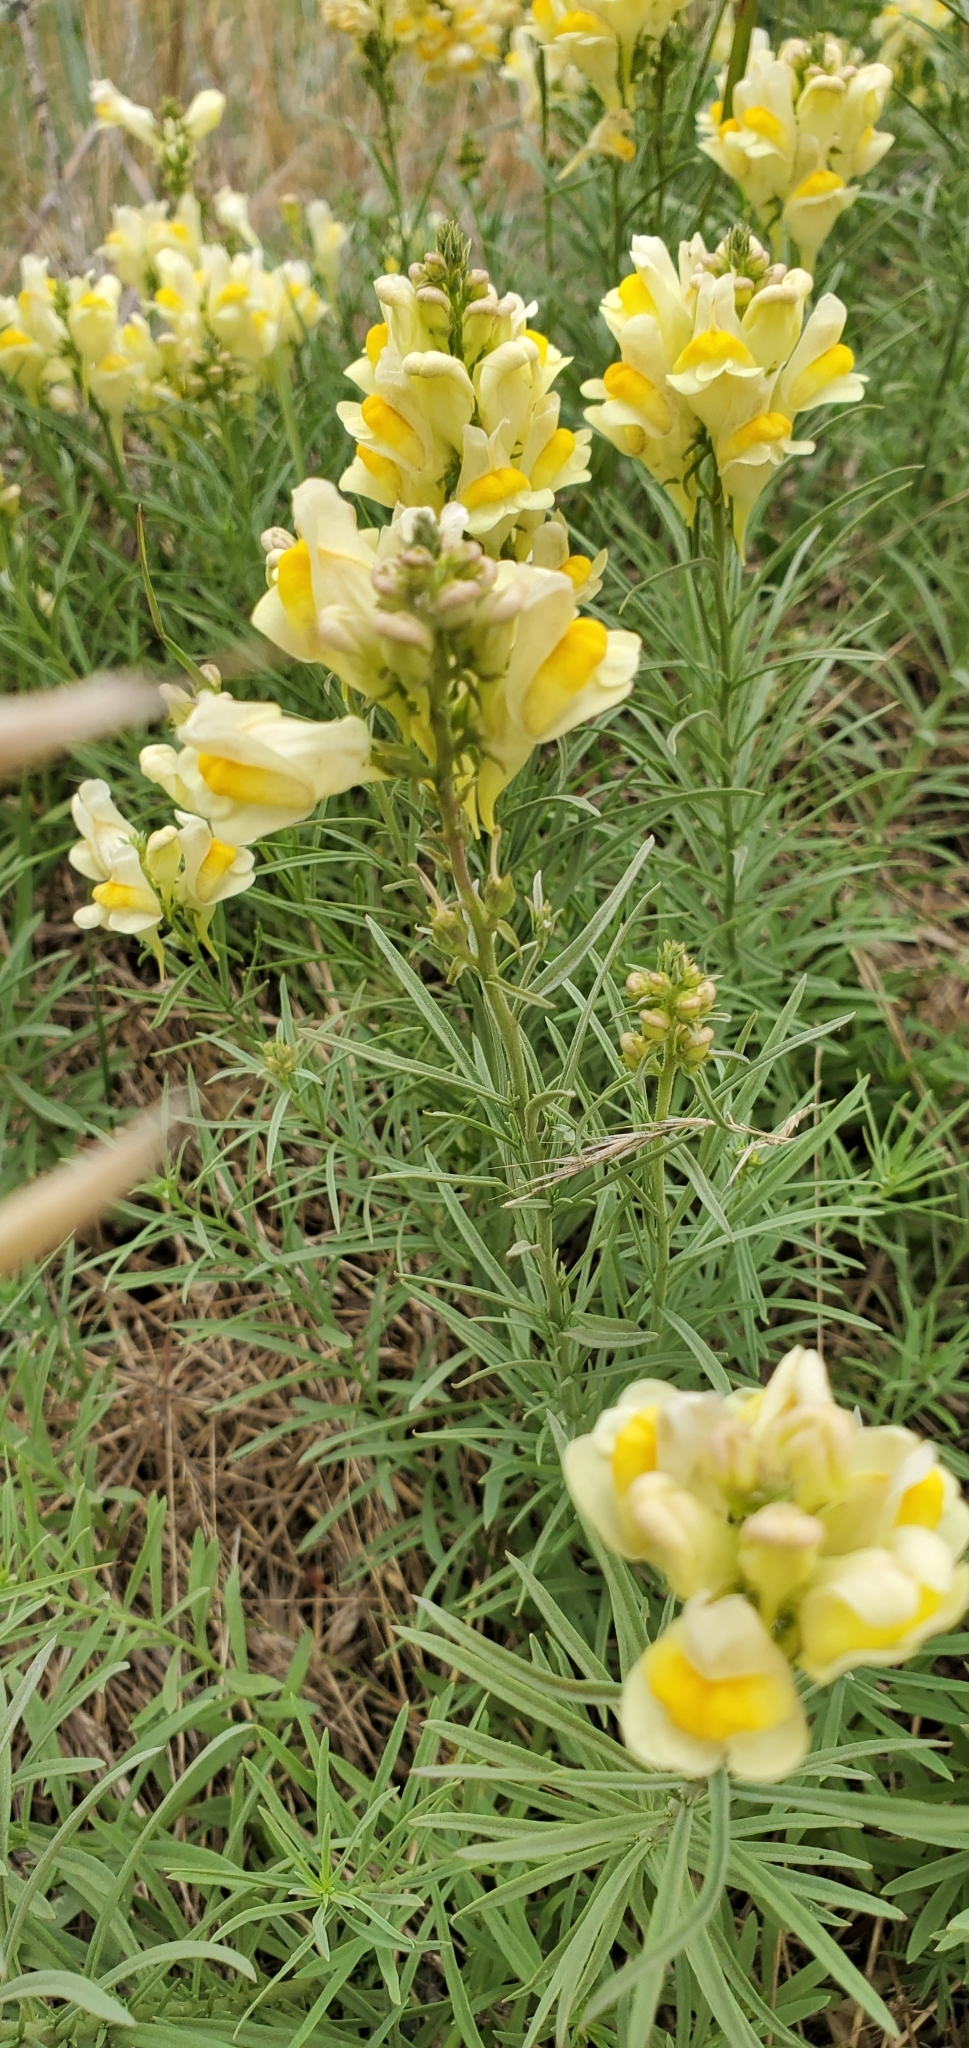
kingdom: Plantae
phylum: Tracheophyta
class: Magnoliopsida
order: Lamiales
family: Plantaginaceae
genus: Linaria
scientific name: Linaria vulgaris
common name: Butter and eggs
